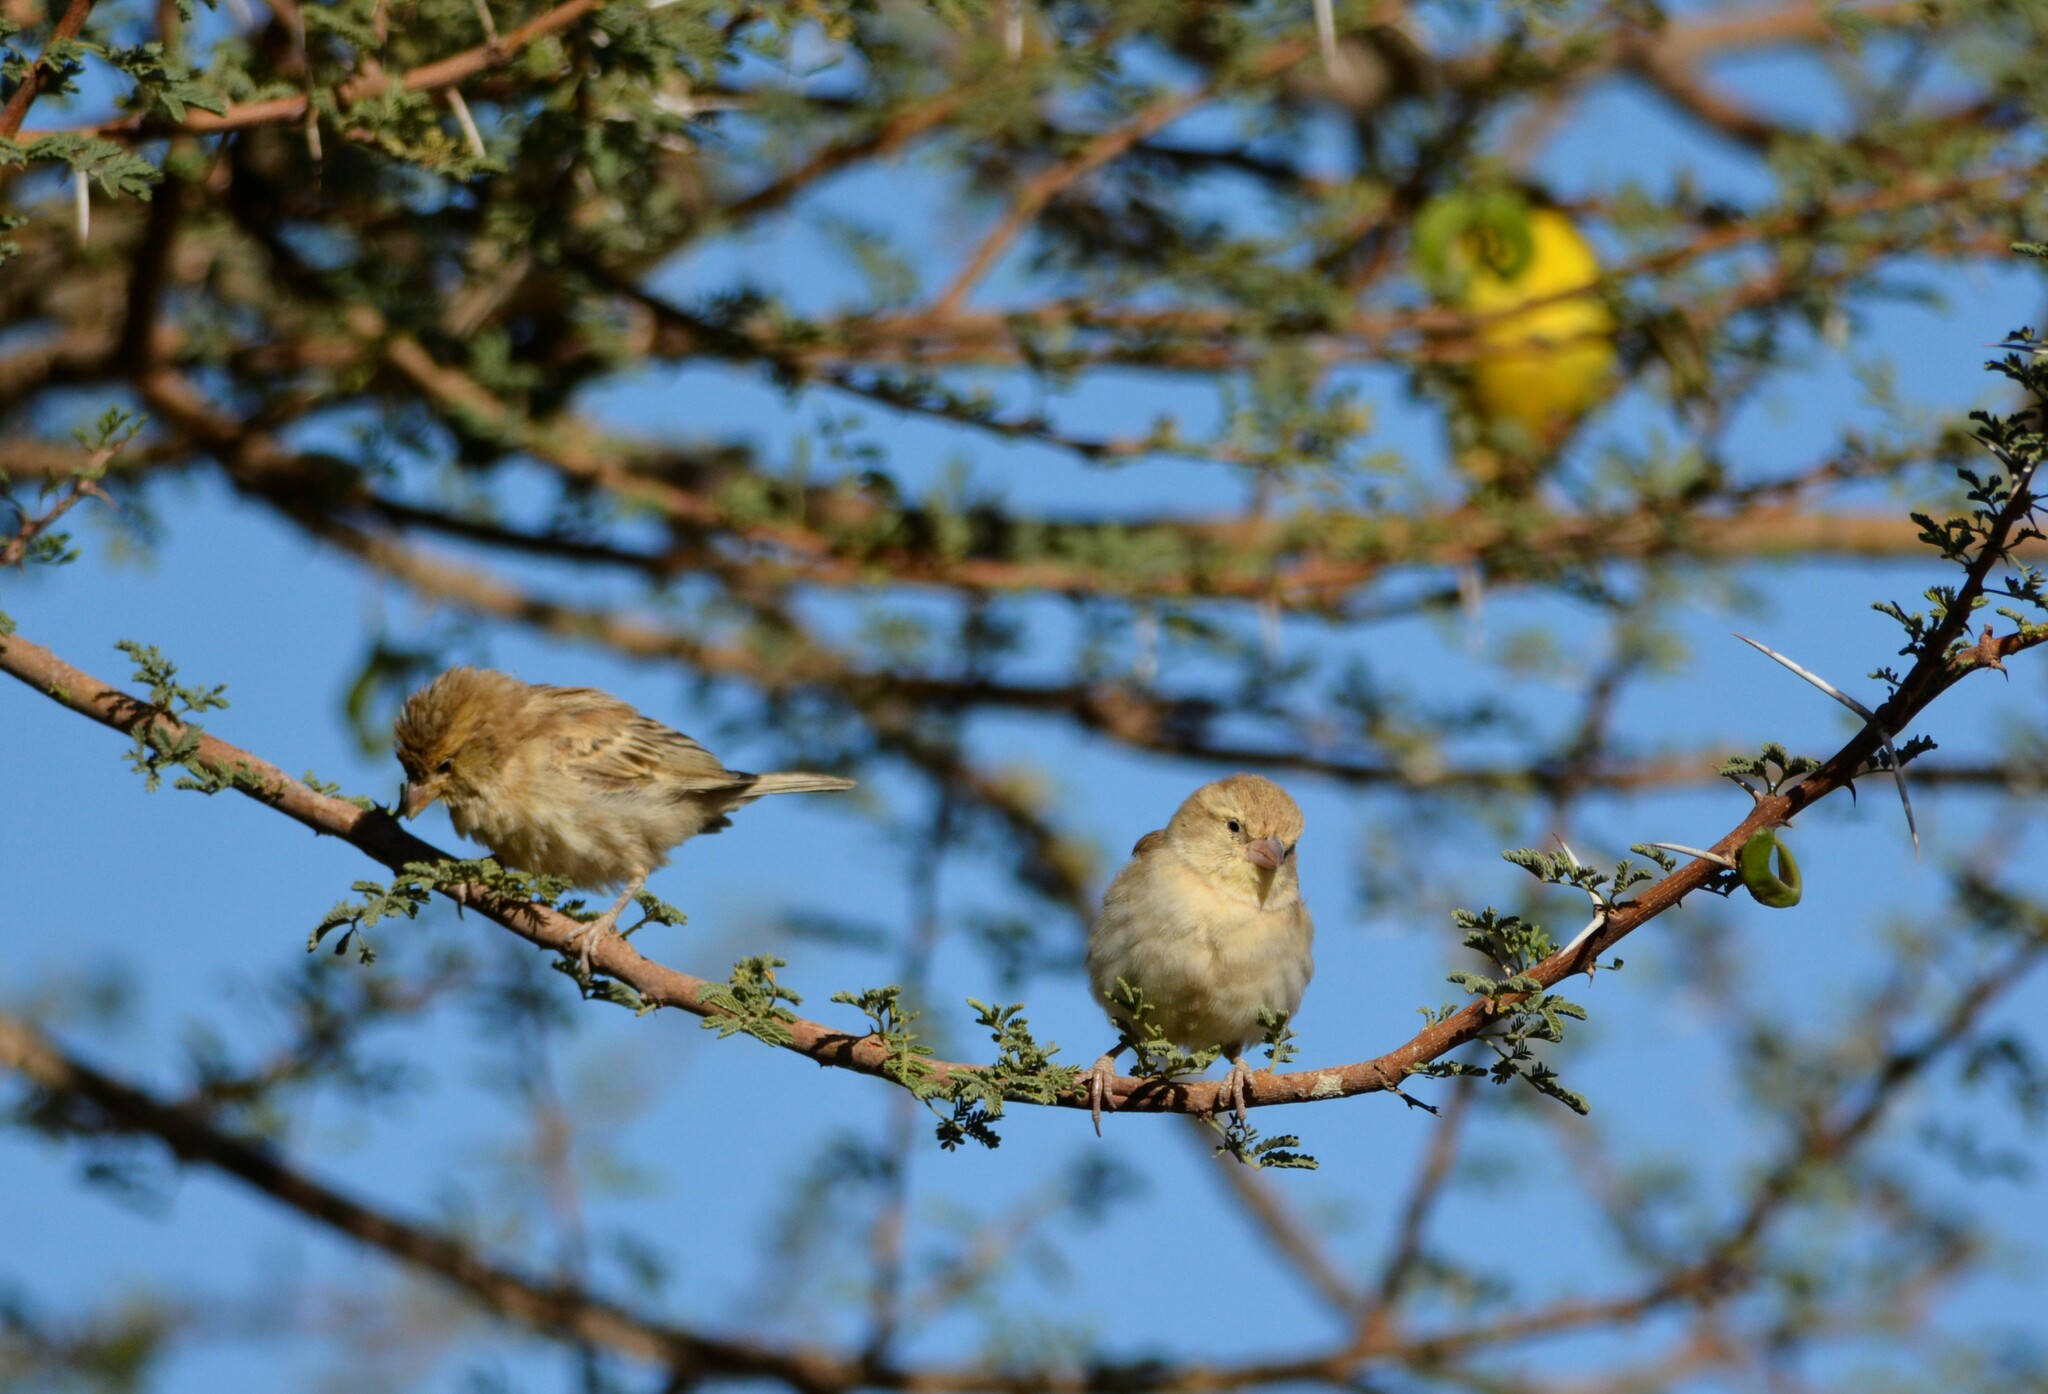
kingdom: Animalia
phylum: Chordata
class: Aves
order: Passeriformes
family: Passeridae
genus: Passer
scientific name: Passer luteus
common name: Sudan golden sparrow
